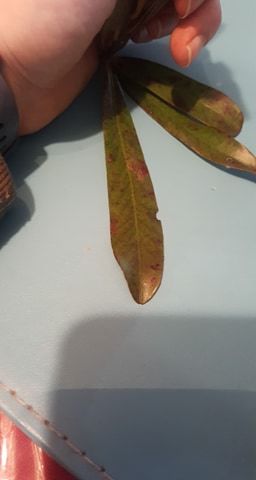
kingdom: Plantae
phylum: Tracheophyta
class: Magnoliopsida
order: Ericales
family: Primulaceae
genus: Myrsine
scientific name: Myrsine salicina
